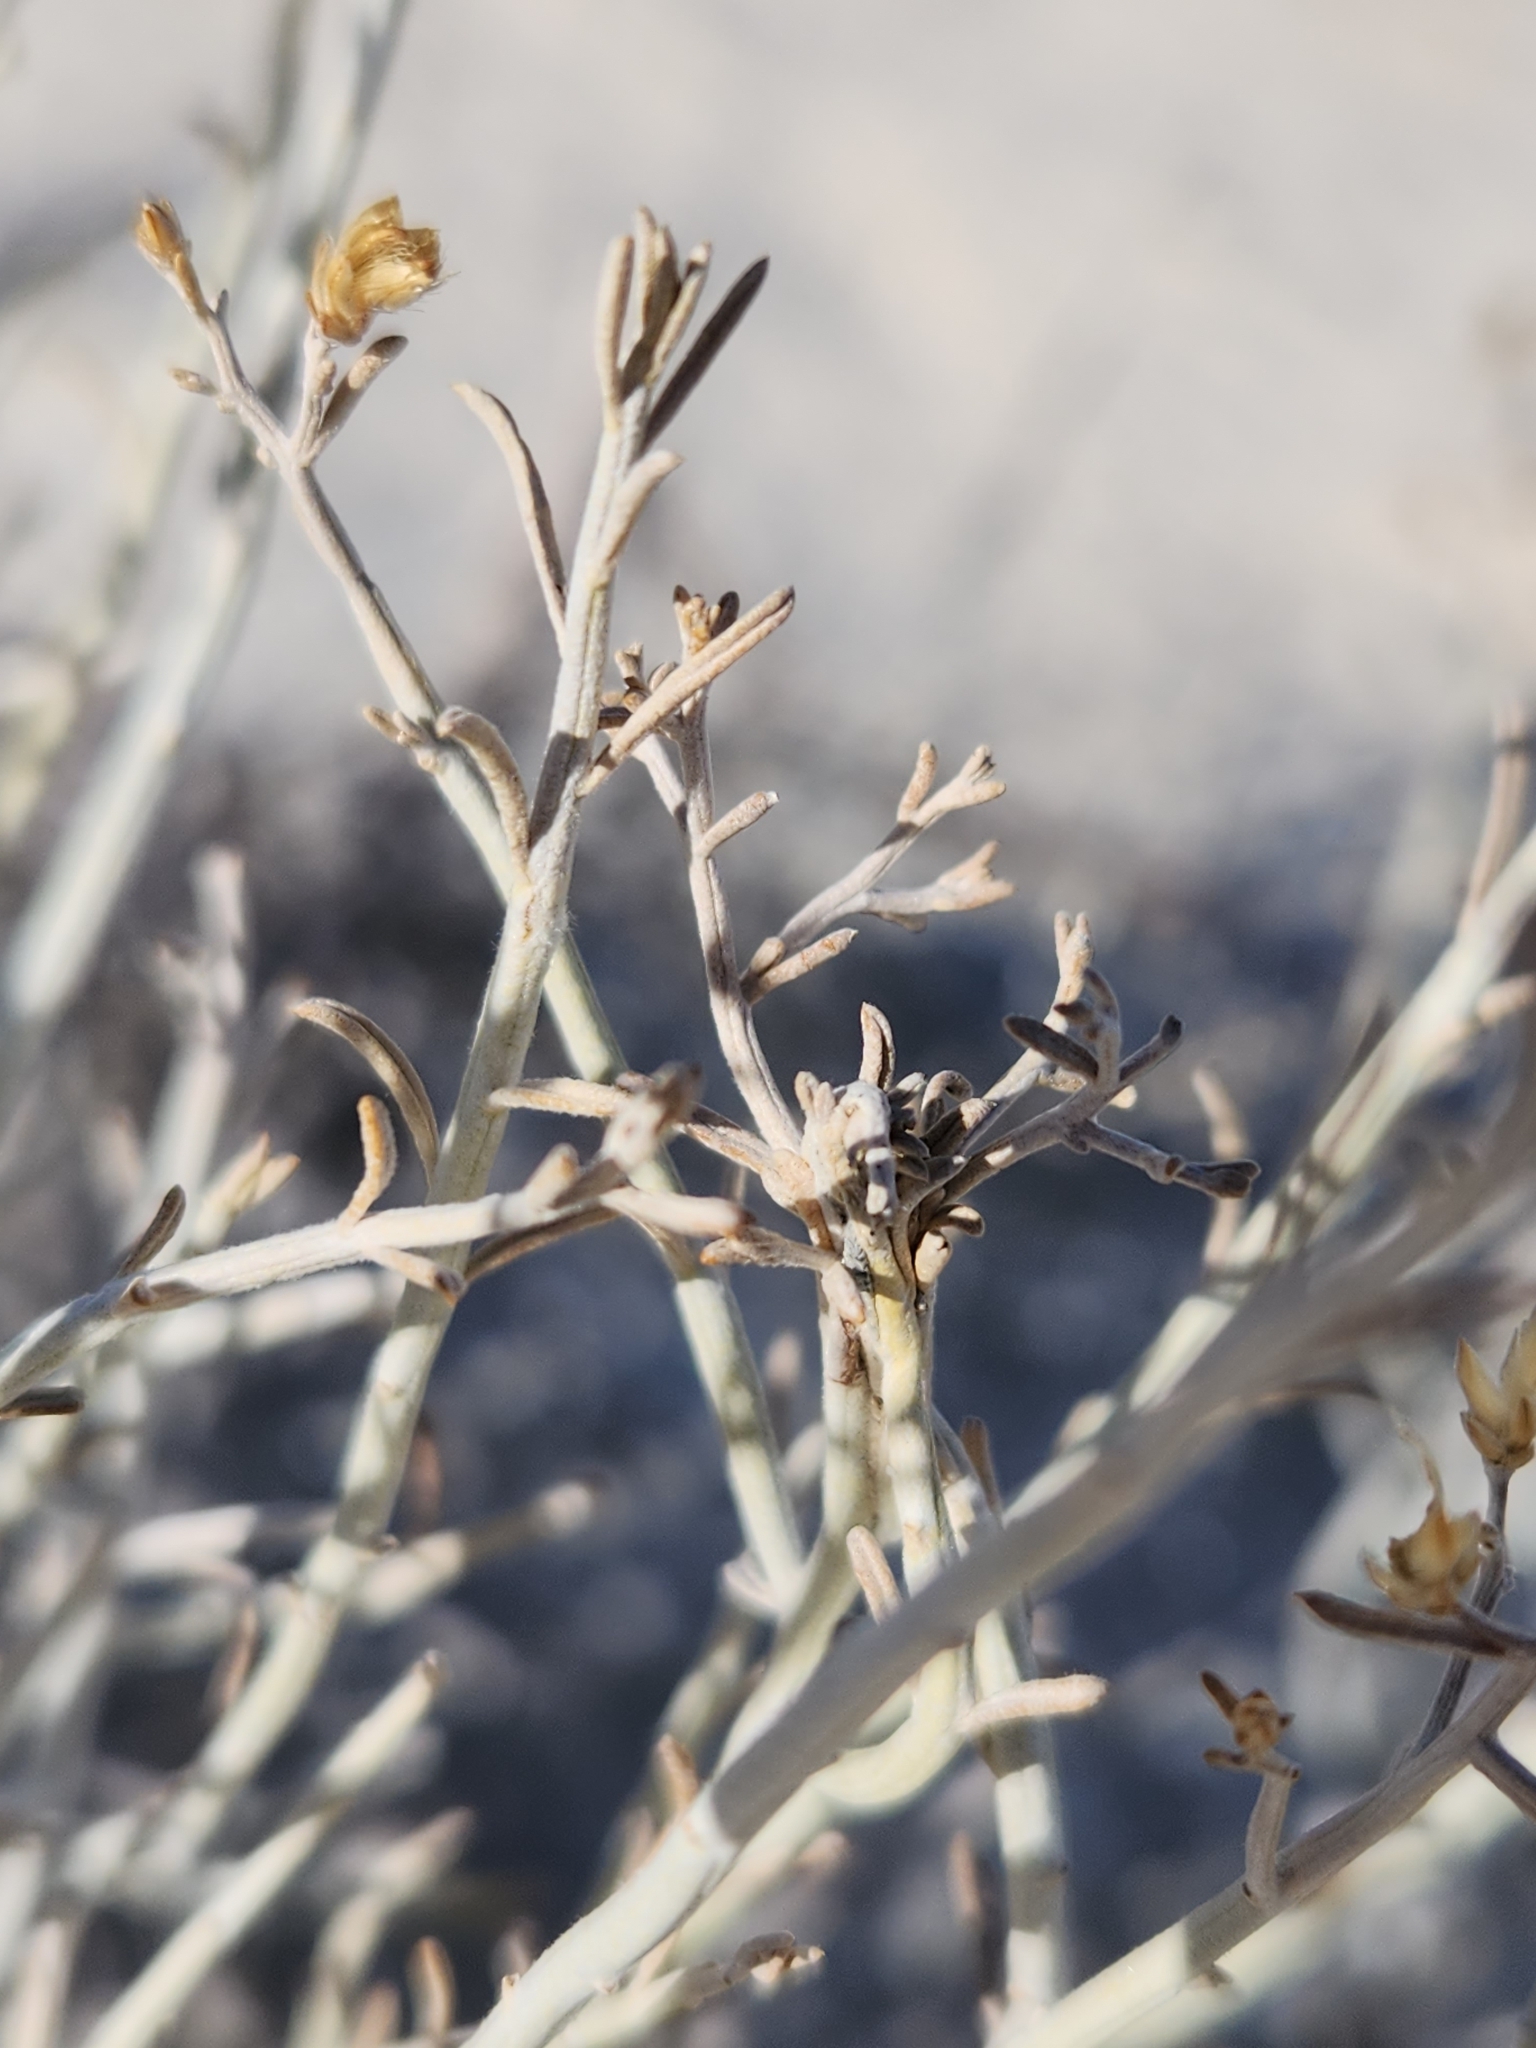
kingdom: Plantae
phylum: Tracheophyta
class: Magnoliopsida
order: Asterales
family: Asteraceae
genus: Ericameria
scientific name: Ericameria nauseosa
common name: Rubber rabbitbrush
